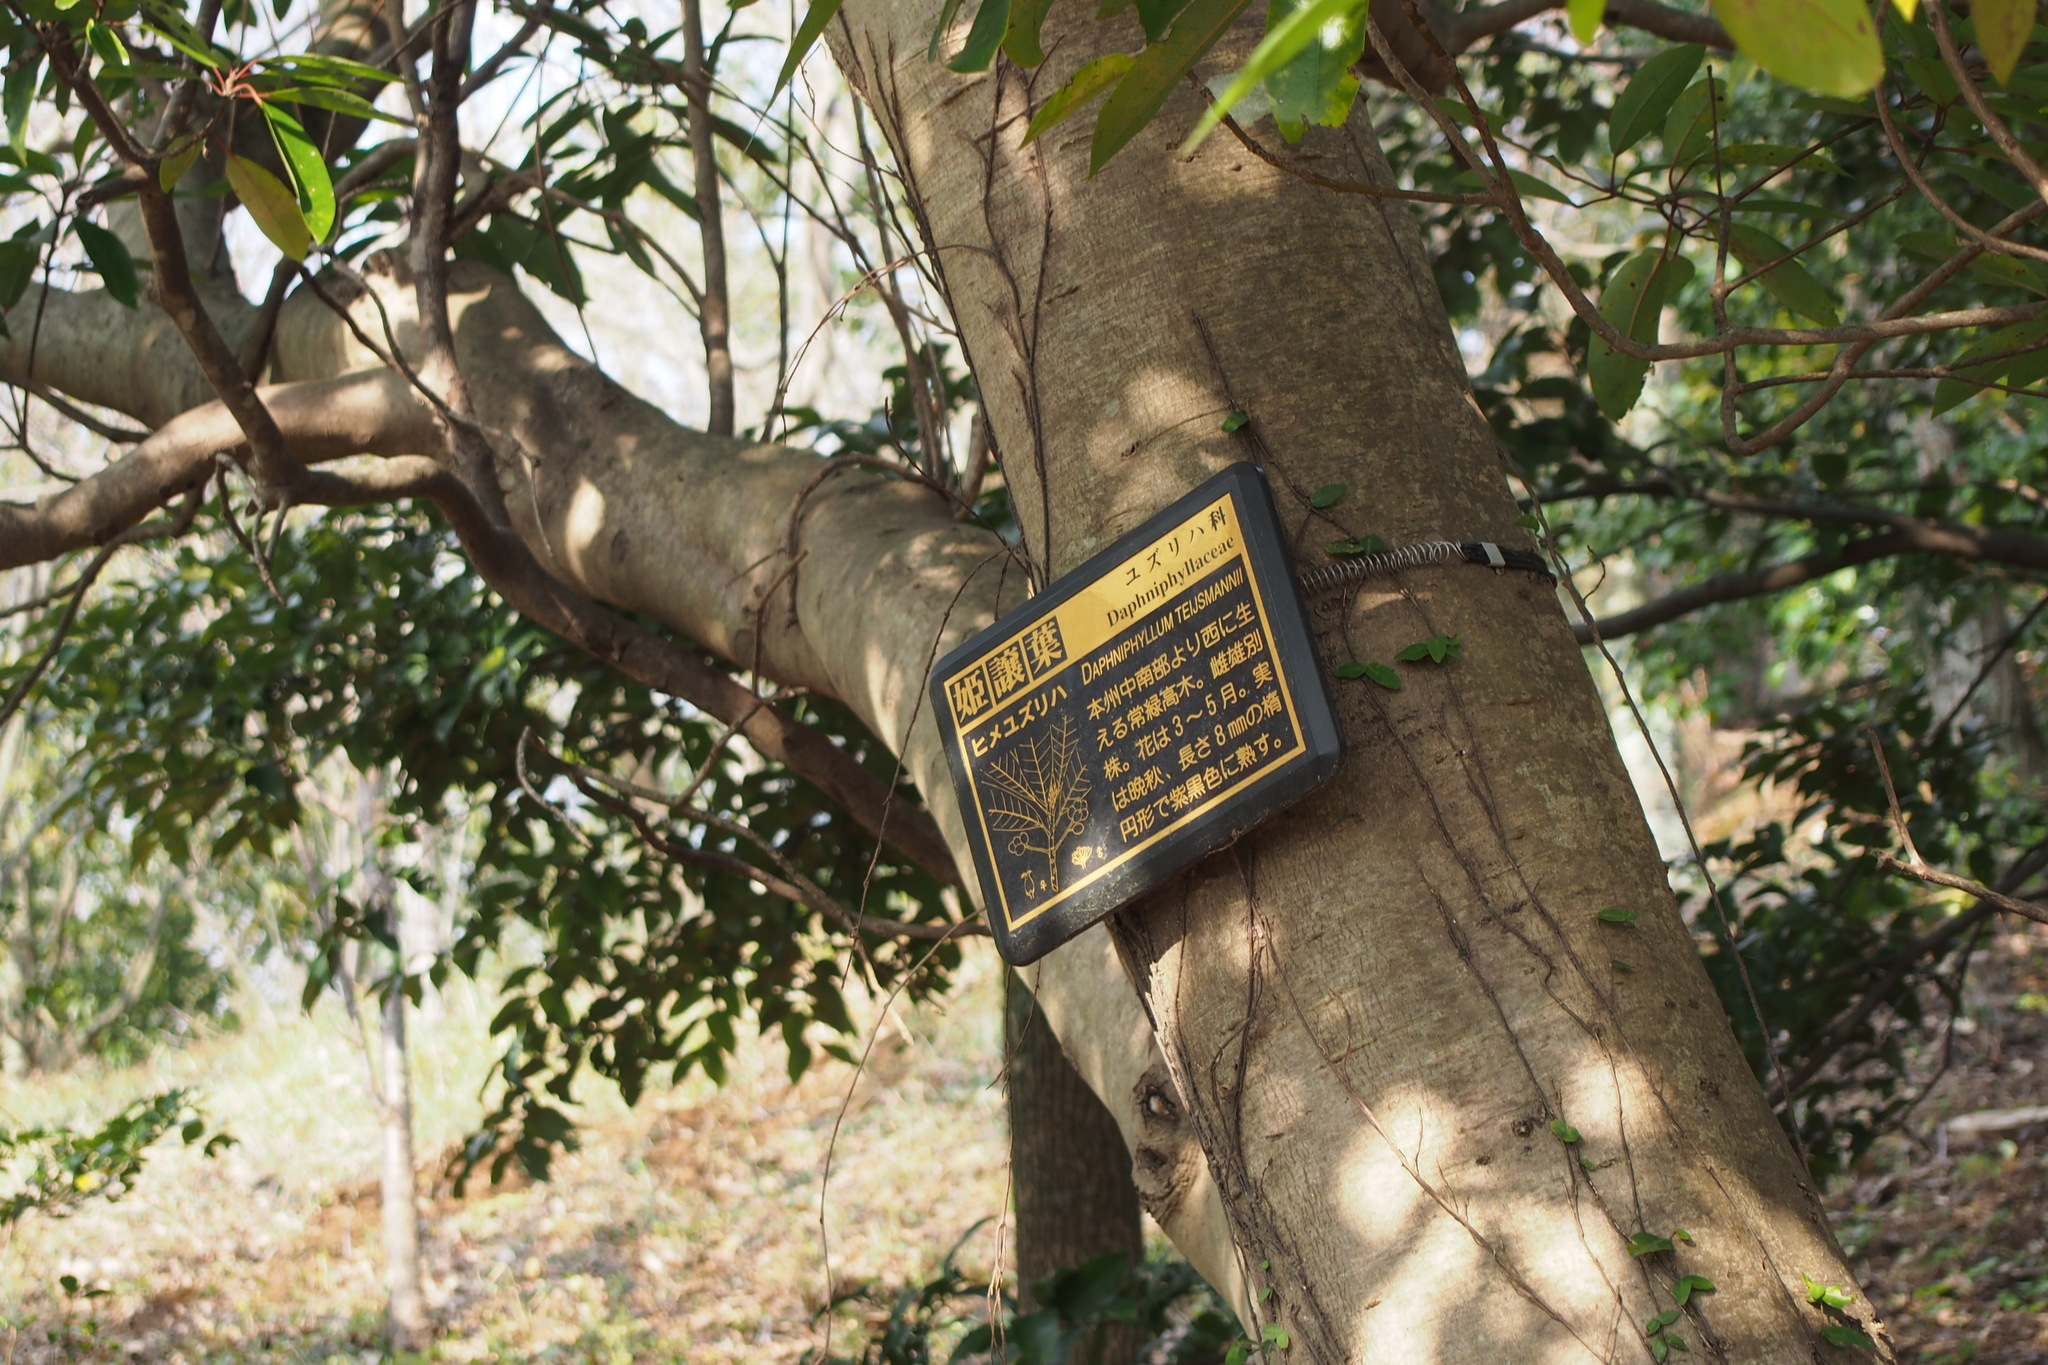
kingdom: Plantae
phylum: Tracheophyta
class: Magnoliopsida
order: Saxifragales
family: Daphniphyllaceae
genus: Daphniphyllum
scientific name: Daphniphyllum teijsmannii
